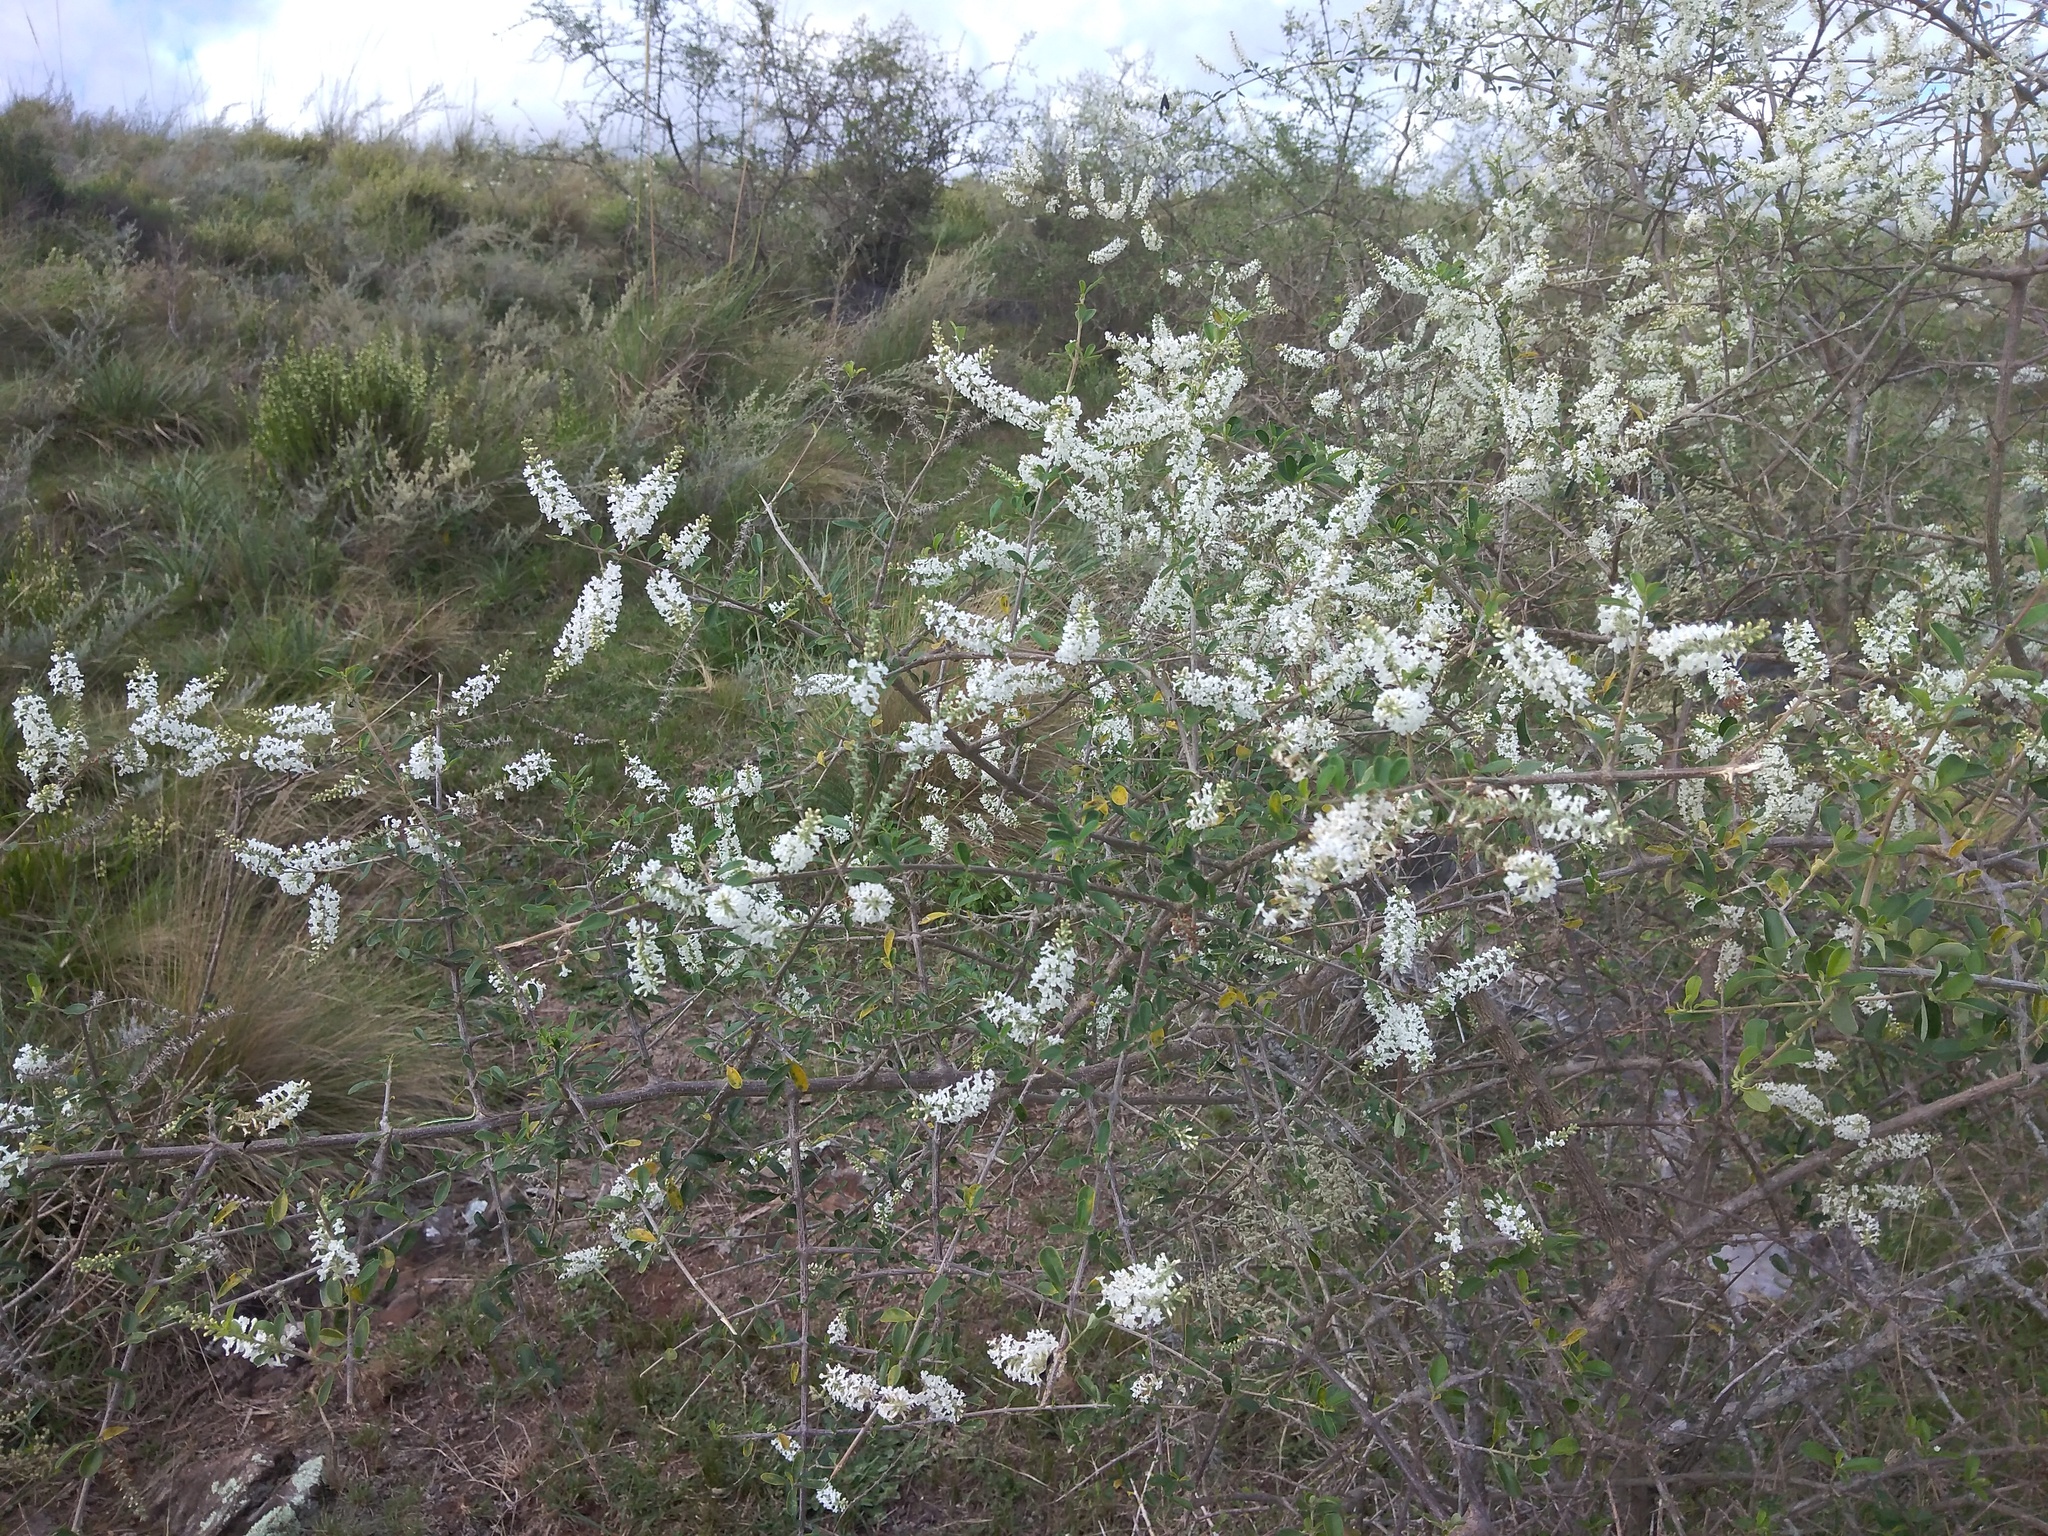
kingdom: Plantae
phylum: Tracheophyta
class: Magnoliopsida
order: Lamiales
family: Verbenaceae
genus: Aloysia
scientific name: Aloysia gratissima
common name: Common bee-brush
